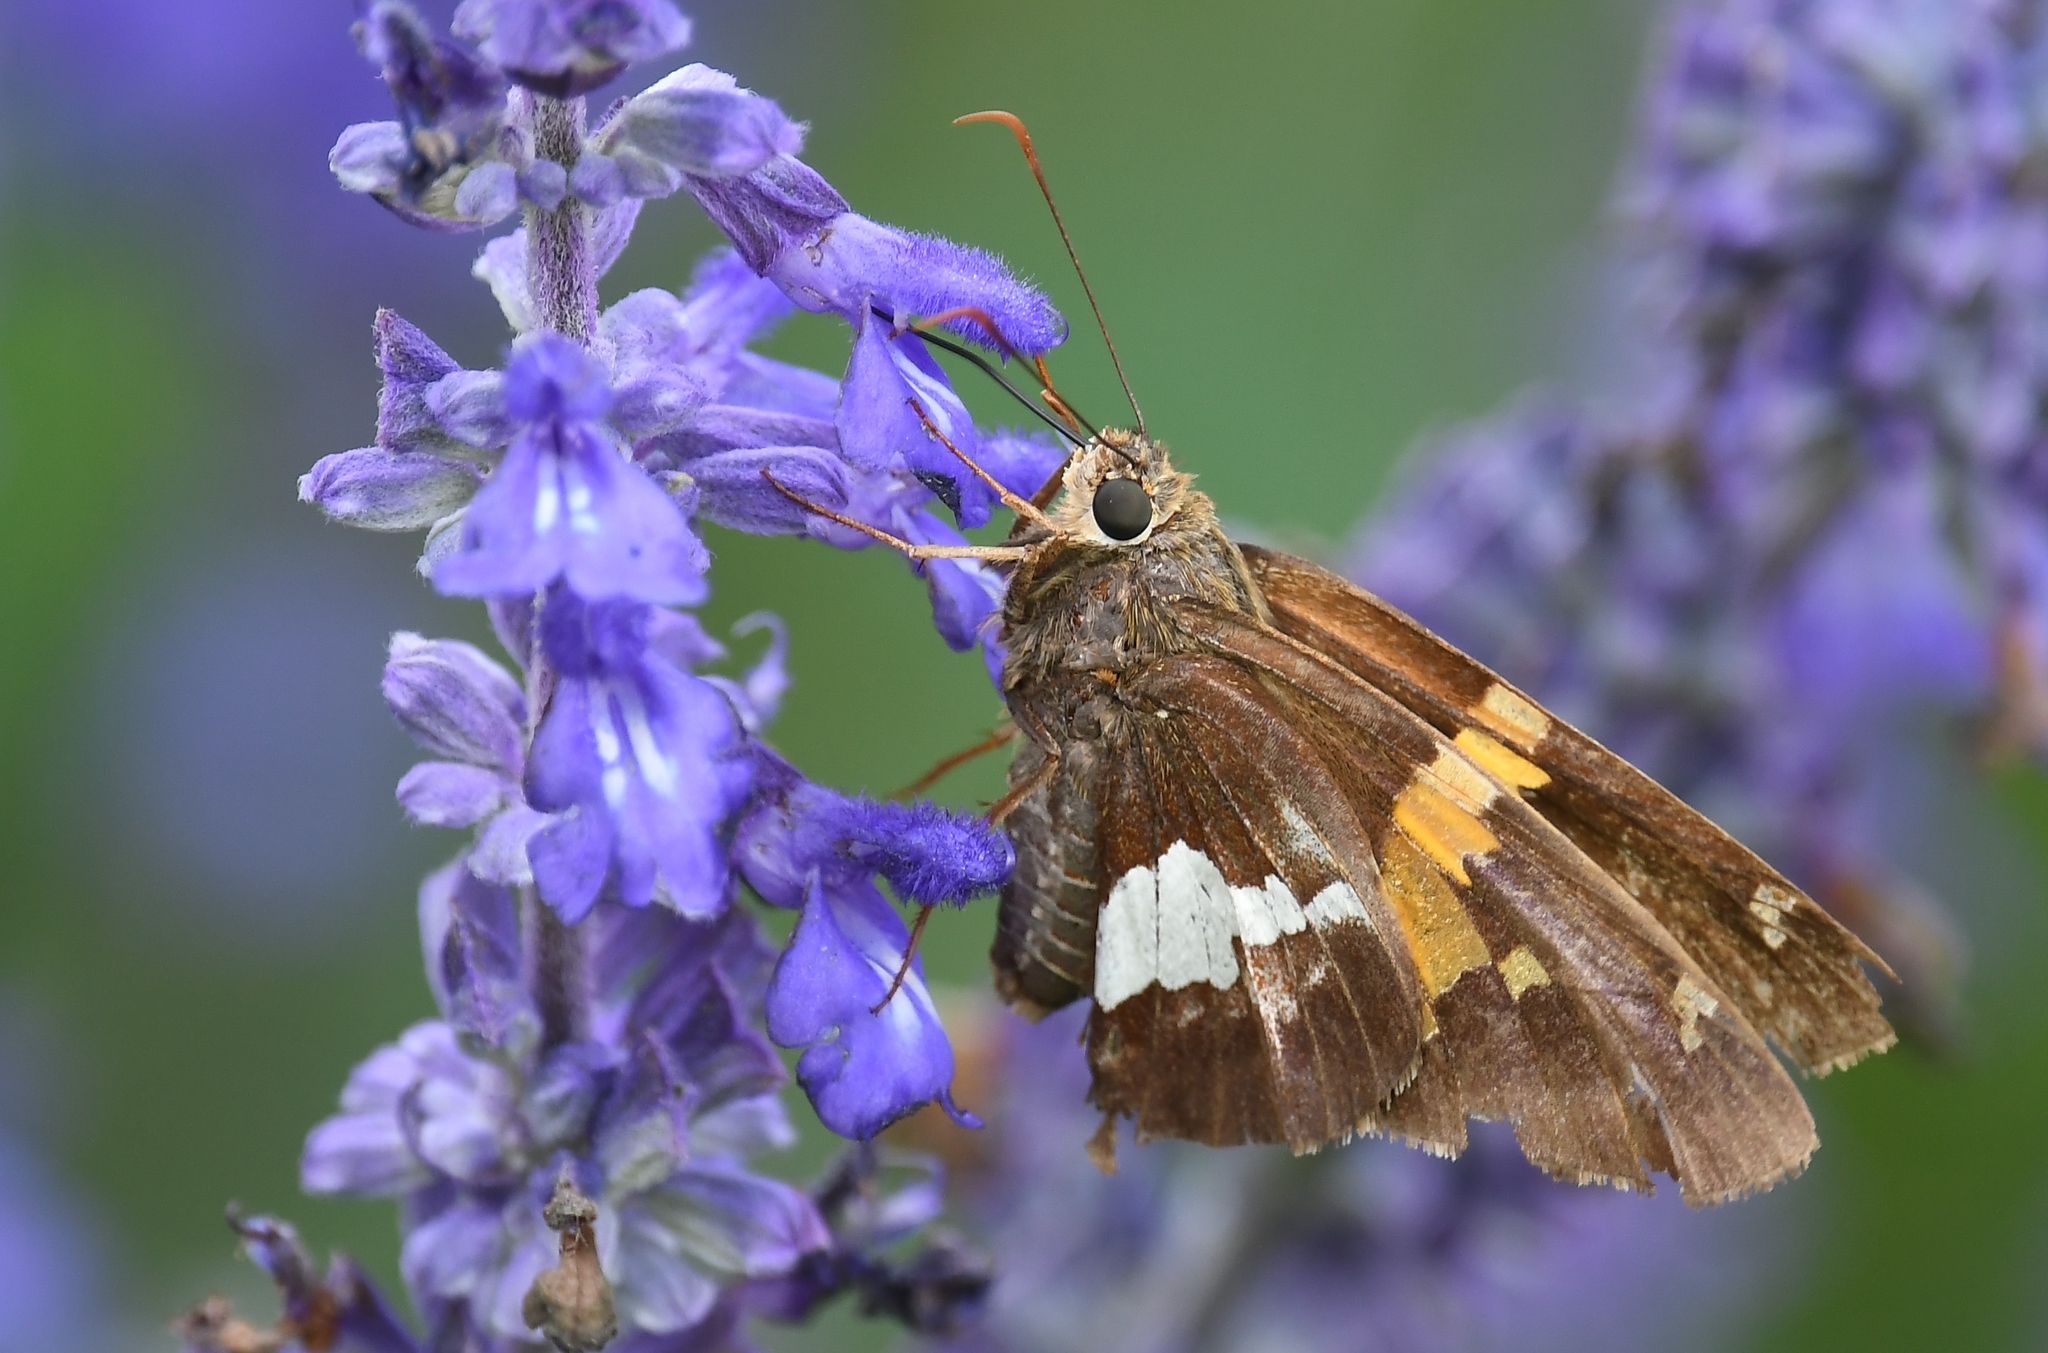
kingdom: Animalia
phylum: Arthropoda
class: Insecta
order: Lepidoptera
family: Hesperiidae
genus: Epargyreus
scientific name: Epargyreus clarus
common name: Silver-spotted skipper
